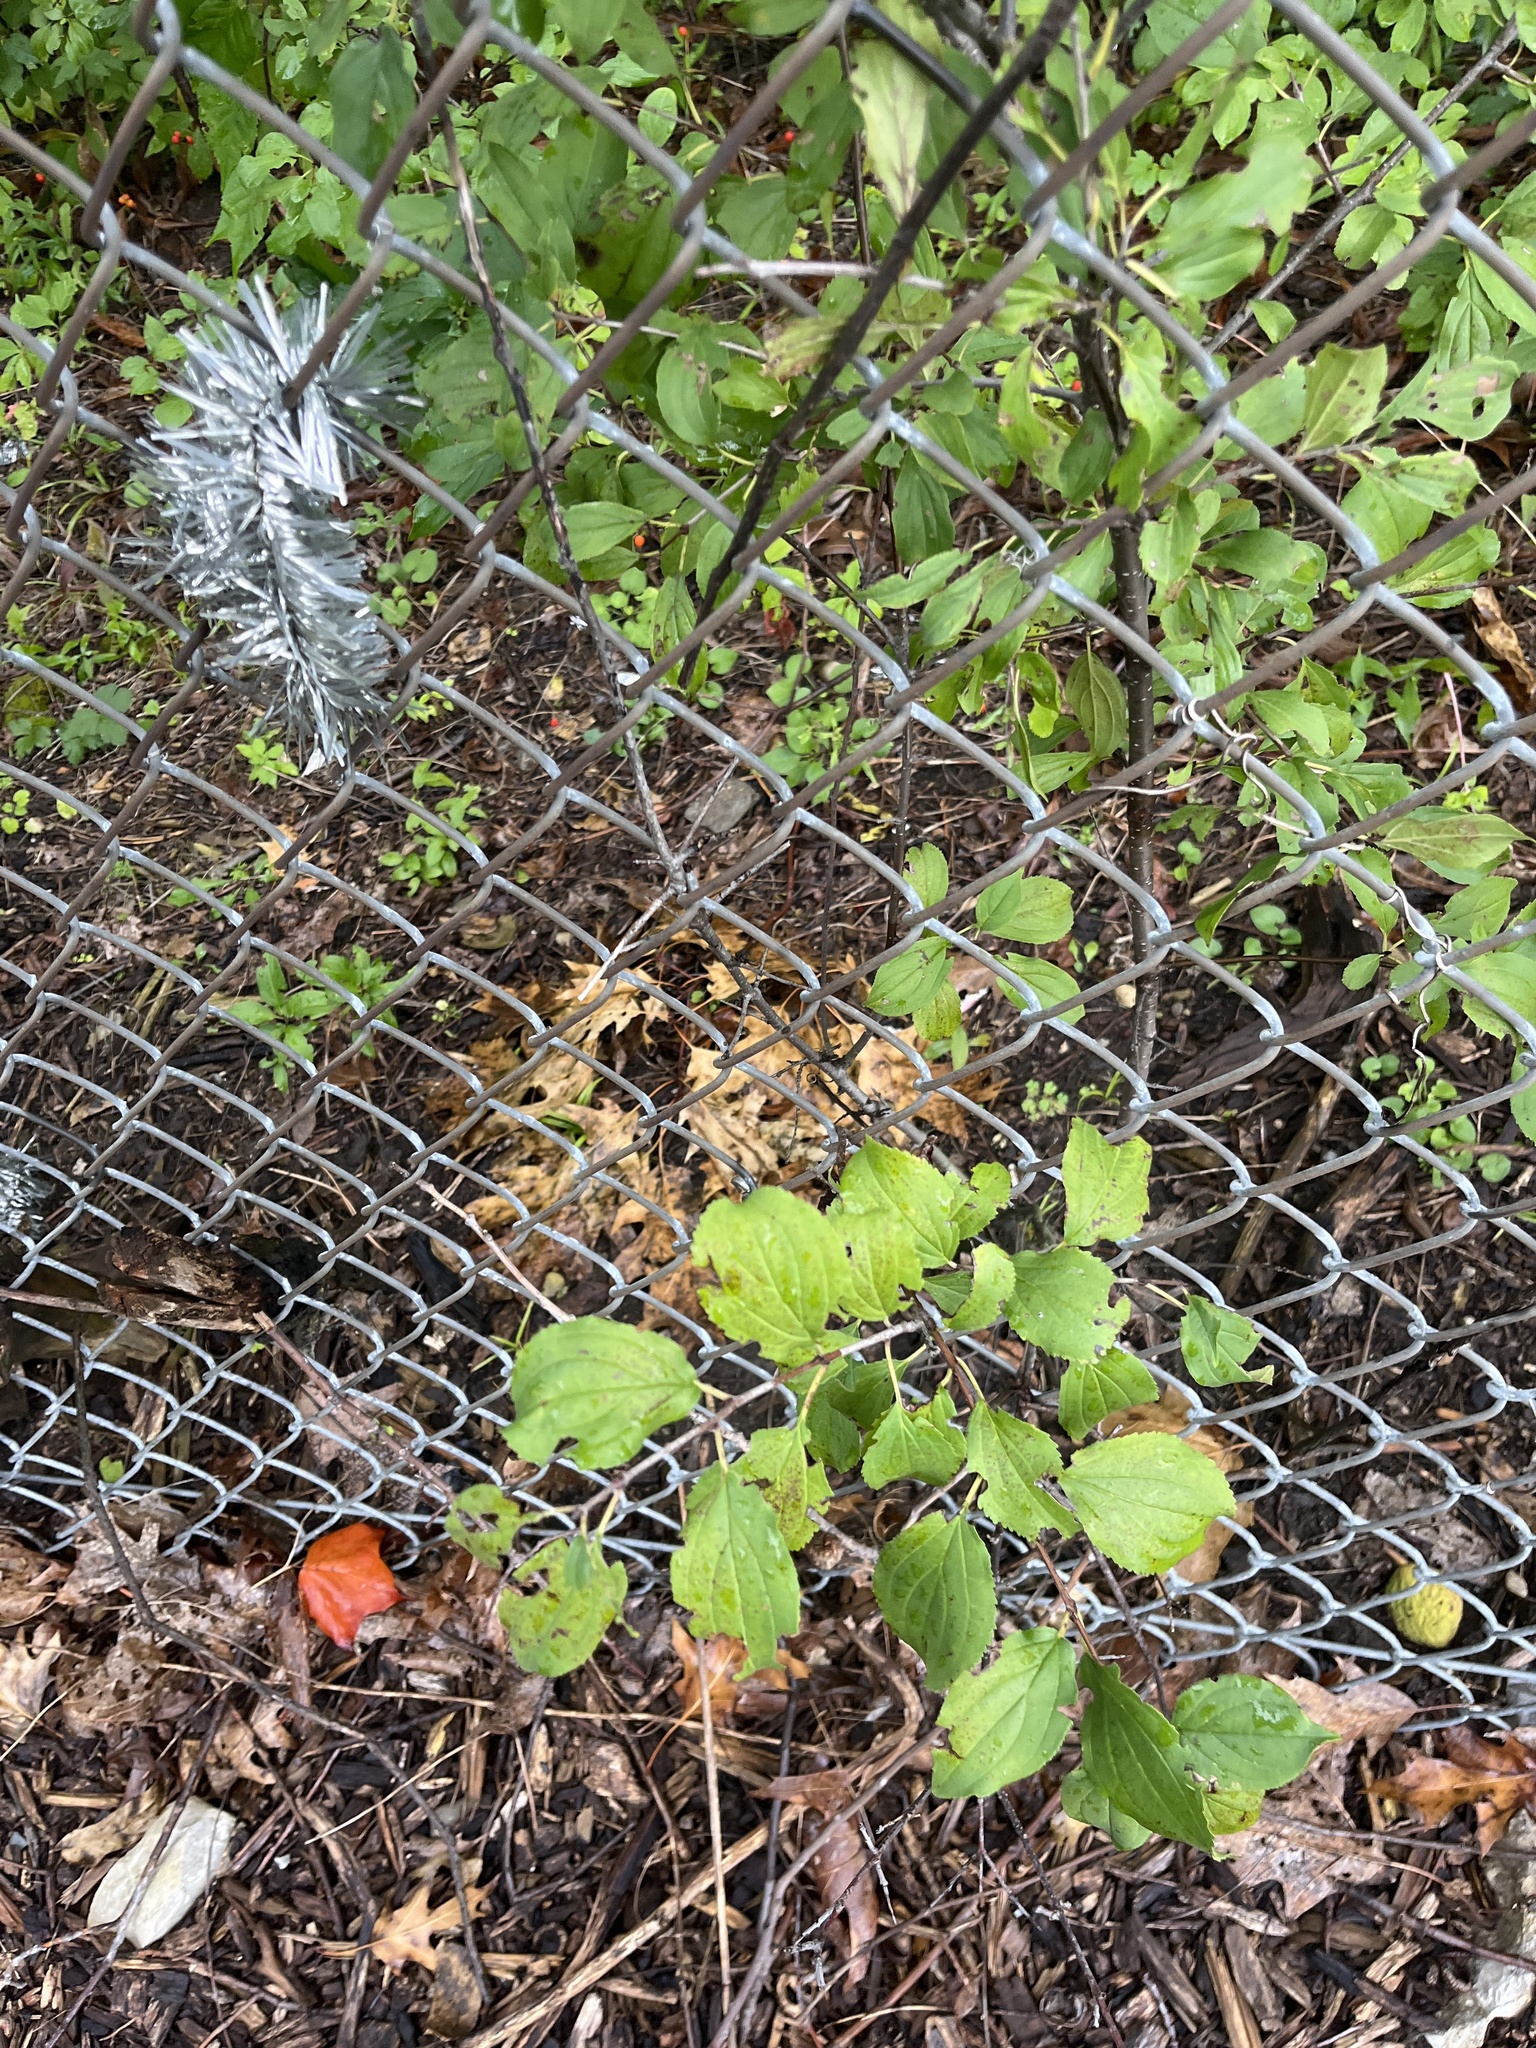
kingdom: Plantae
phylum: Tracheophyta
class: Magnoliopsida
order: Rosales
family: Rhamnaceae
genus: Rhamnus
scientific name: Rhamnus cathartica
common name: Common buckthorn
